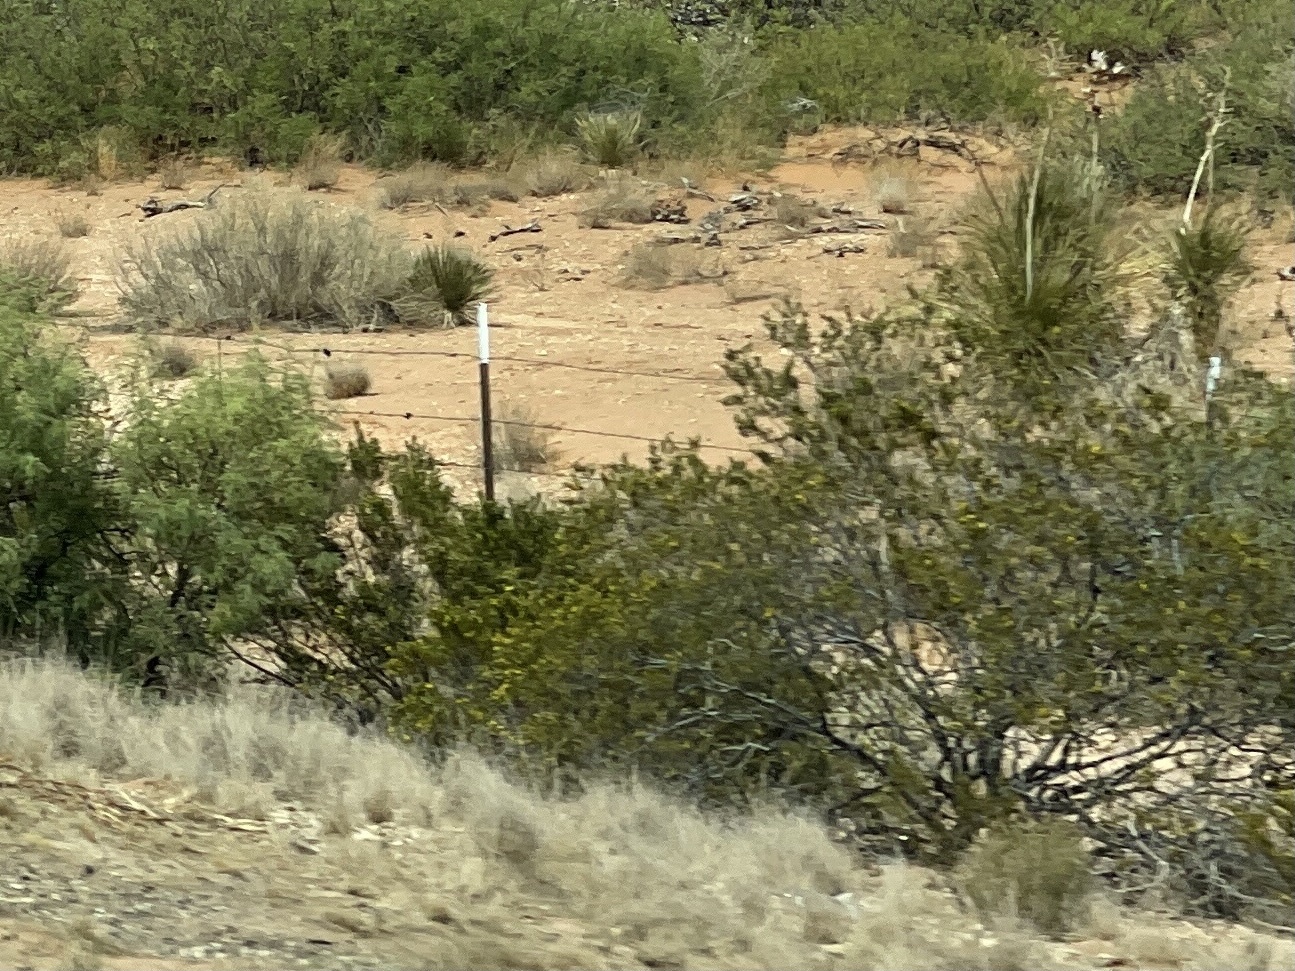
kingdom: Plantae
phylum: Tracheophyta
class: Magnoliopsida
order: Zygophyllales
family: Zygophyllaceae
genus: Larrea
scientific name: Larrea tridentata
